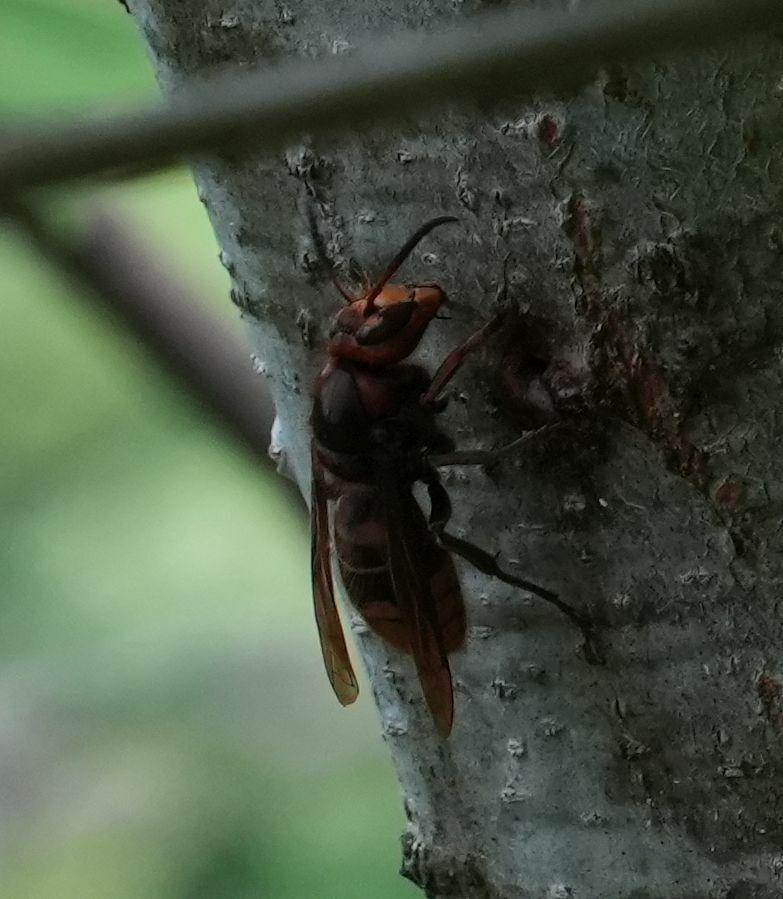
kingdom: Animalia
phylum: Arthropoda
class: Insecta
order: Hymenoptera
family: Vespidae
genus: Vespa
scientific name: Vespa crabro
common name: Hornet
